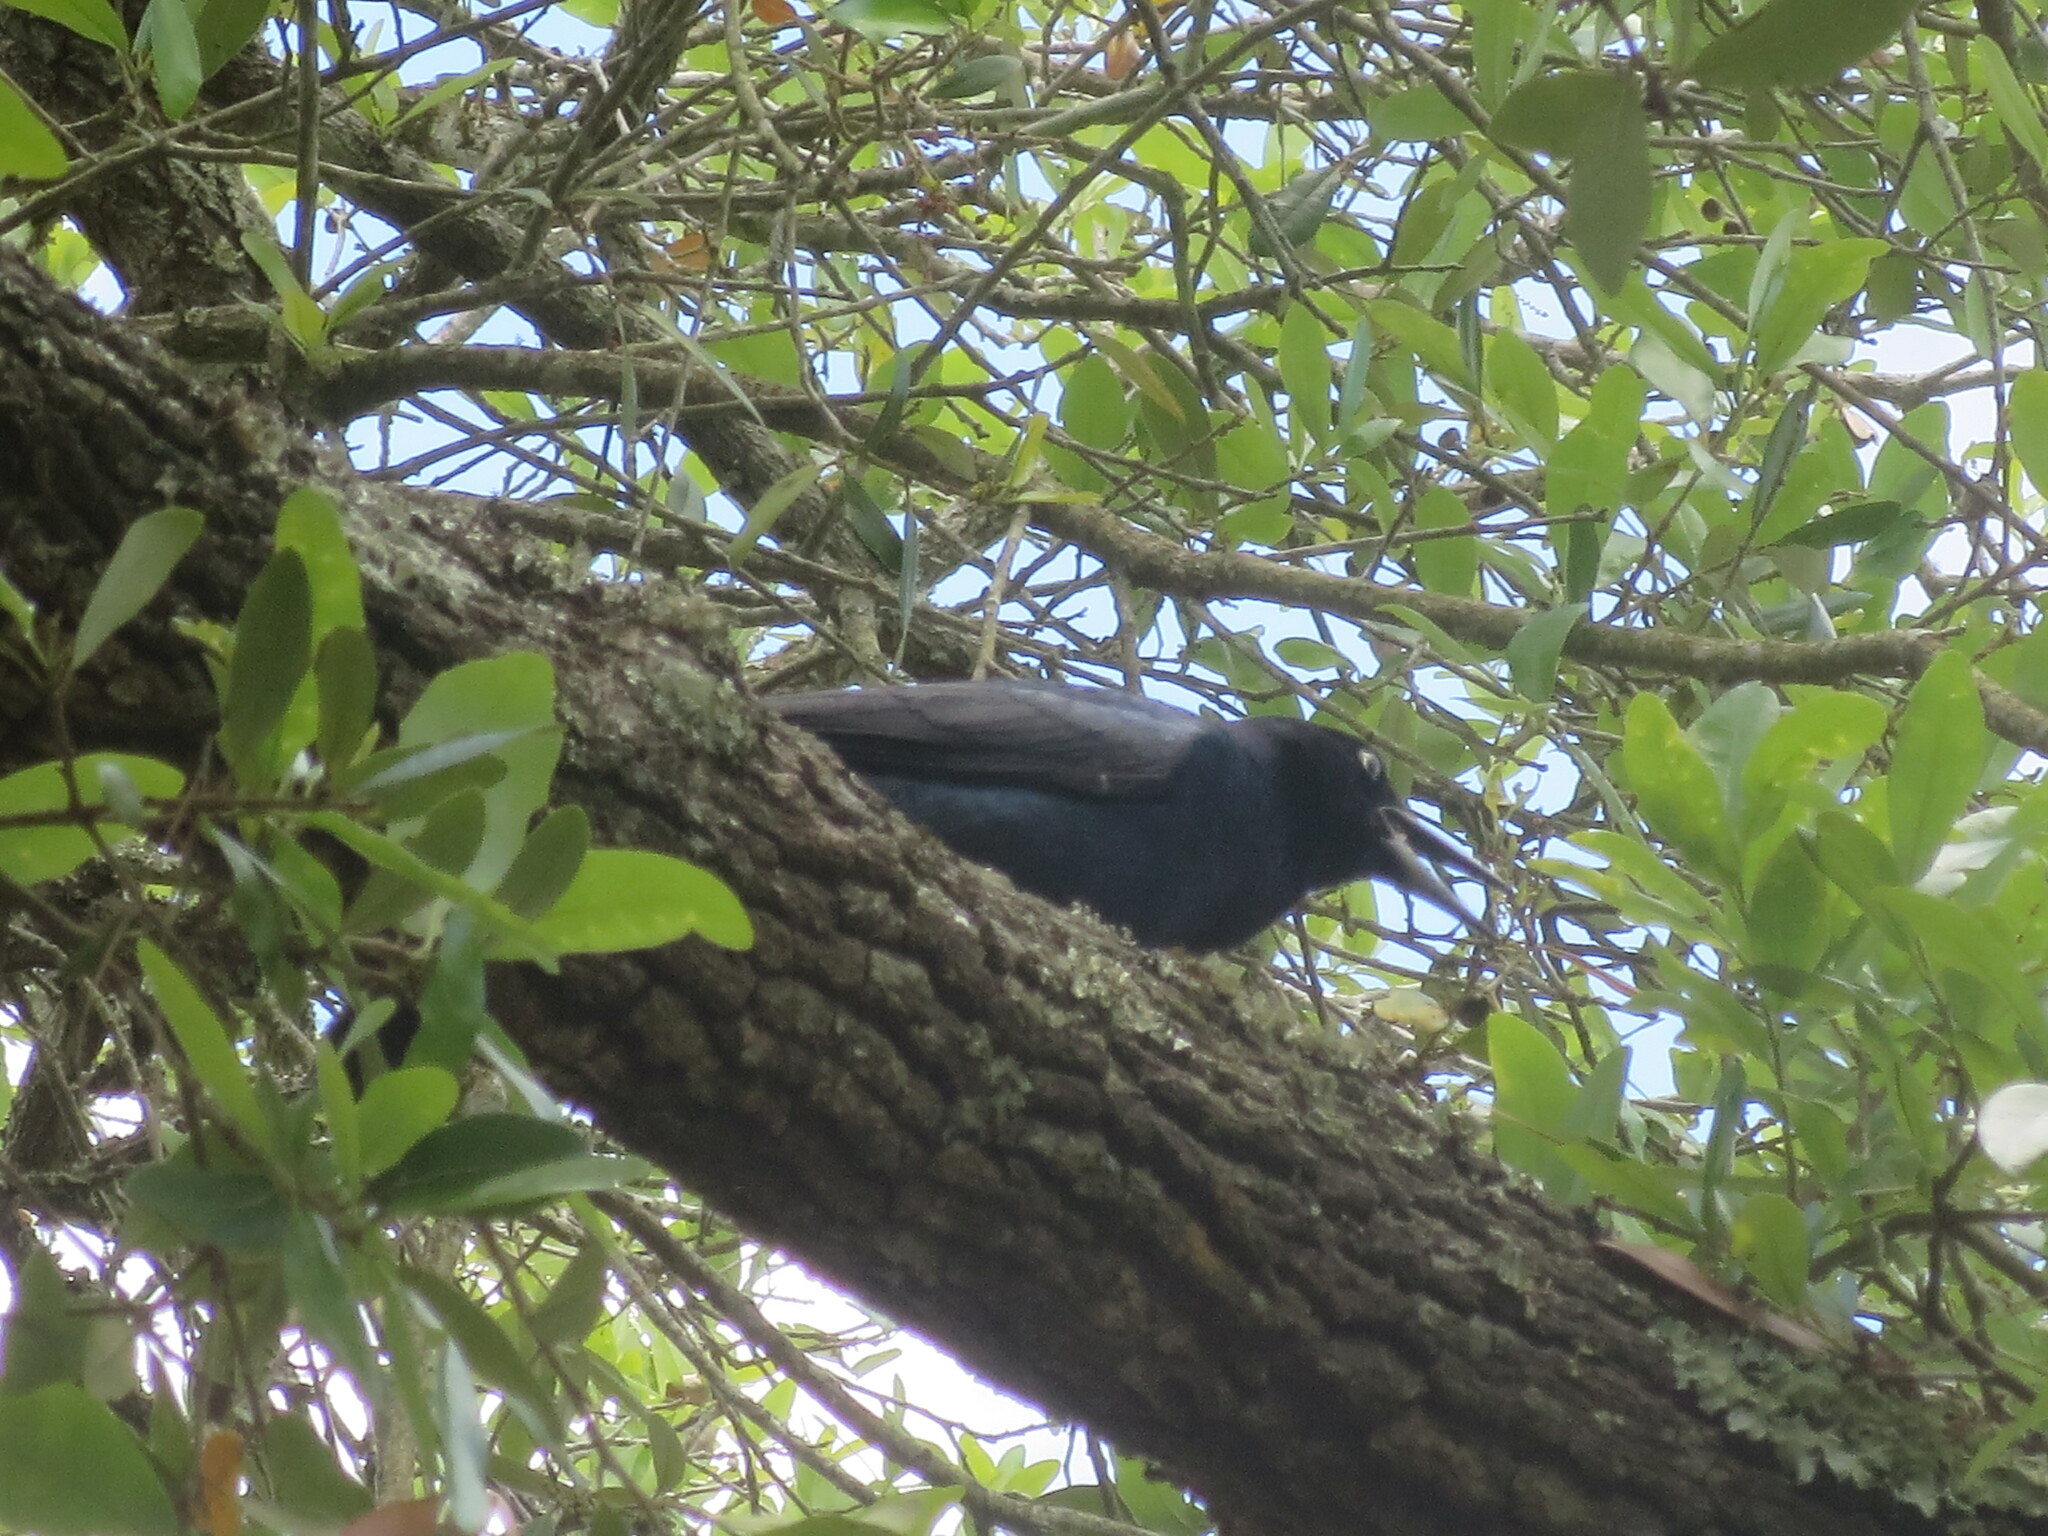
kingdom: Animalia
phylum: Chordata
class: Aves
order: Passeriformes
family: Icteridae
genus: Quiscalus
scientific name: Quiscalus major
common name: Boat-tailed grackle
